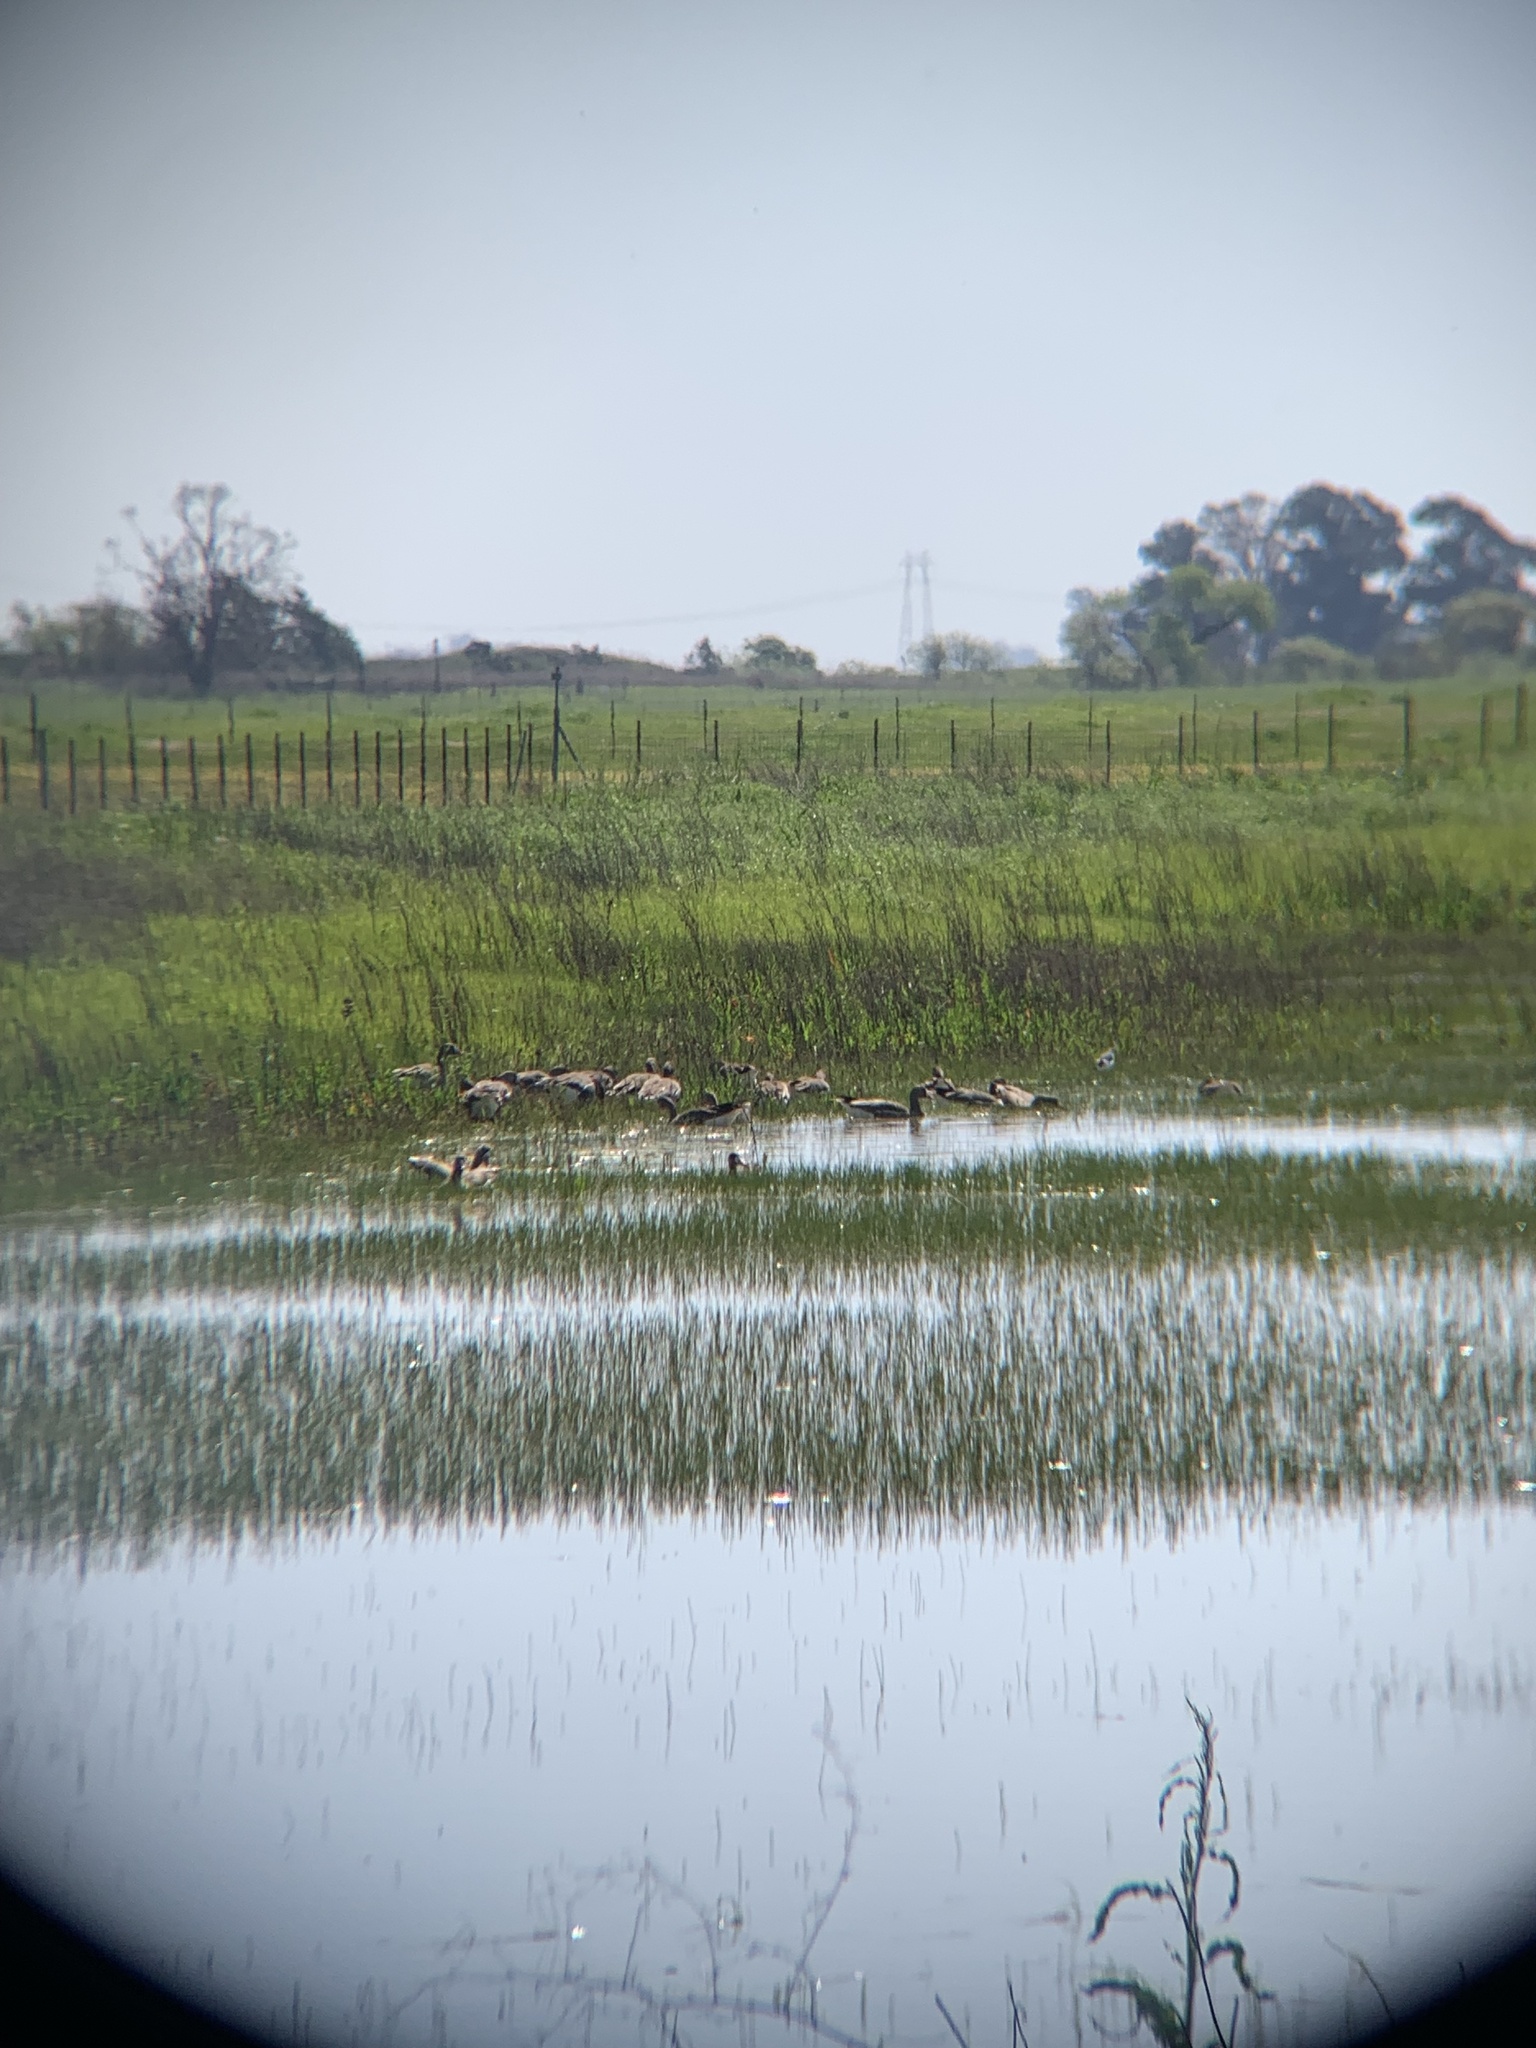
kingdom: Animalia
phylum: Chordata
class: Aves
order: Anseriformes
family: Anatidae
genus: Anser
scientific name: Anser albifrons
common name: Greater white-fronted goose
